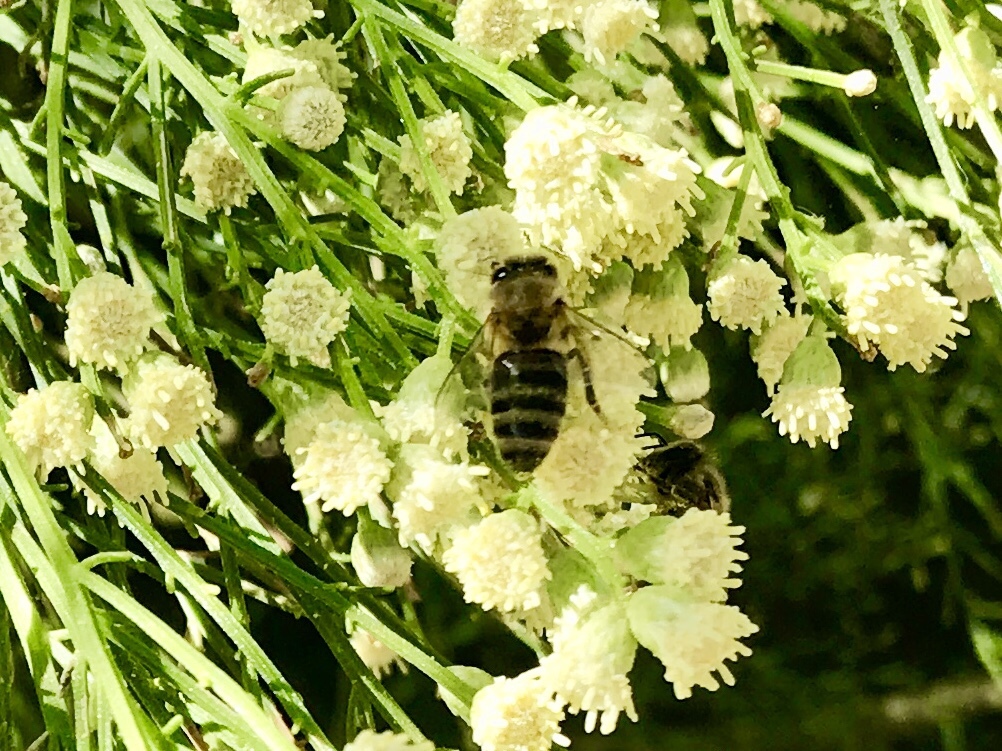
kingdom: Animalia
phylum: Arthropoda
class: Insecta
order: Hymenoptera
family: Apidae
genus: Apis
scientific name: Apis mellifera
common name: Honey bee
